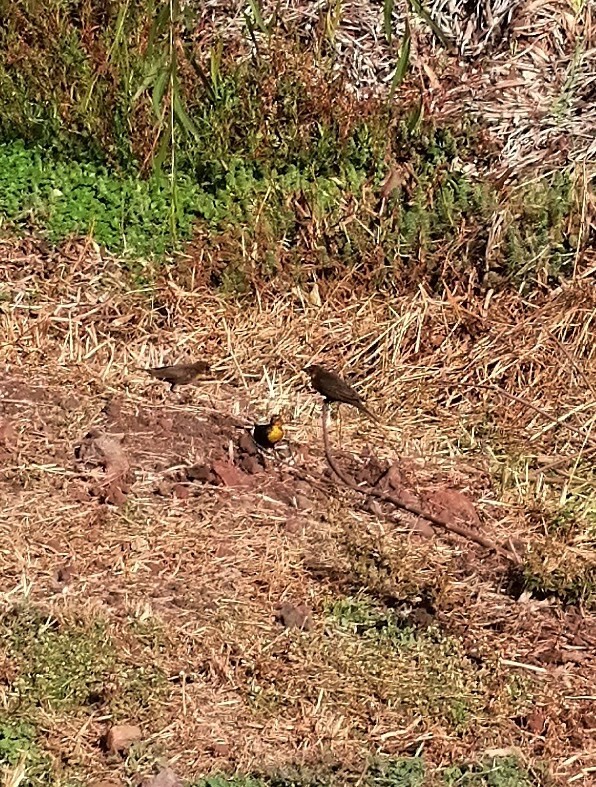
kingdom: Animalia
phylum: Chordata
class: Aves
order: Passeriformes
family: Icteridae
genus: Xanthocephalus
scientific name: Xanthocephalus xanthocephalus
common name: Yellow-headed blackbird
